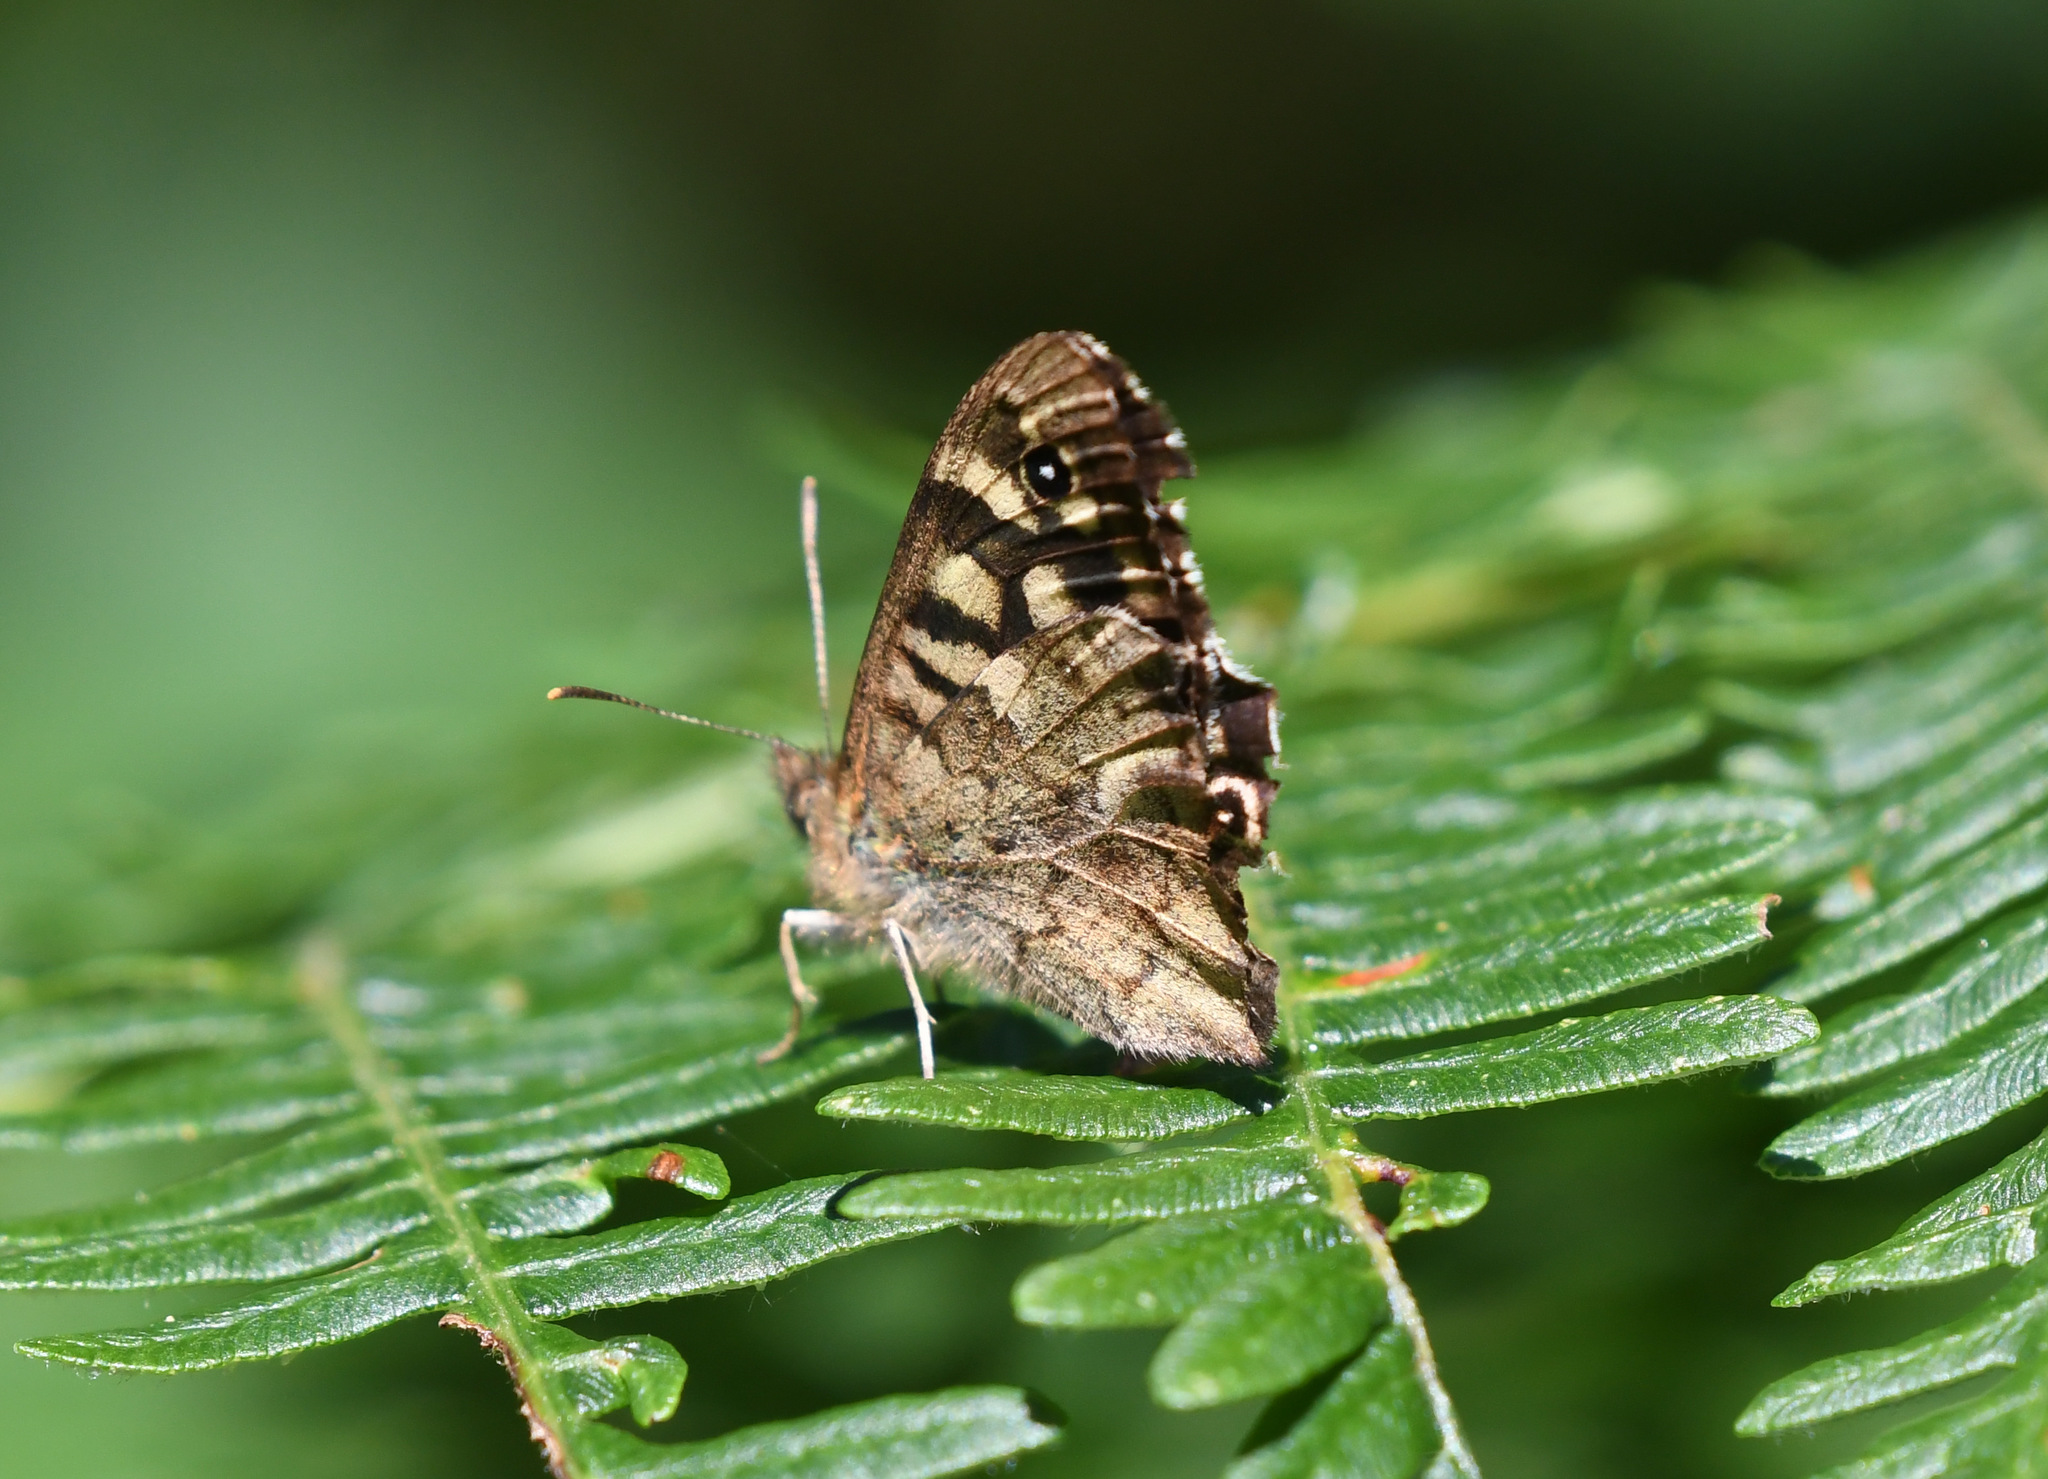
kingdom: Animalia
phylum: Arthropoda
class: Insecta
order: Lepidoptera
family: Nymphalidae
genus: Pararge
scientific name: Pararge aegeria
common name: Speckled wood
